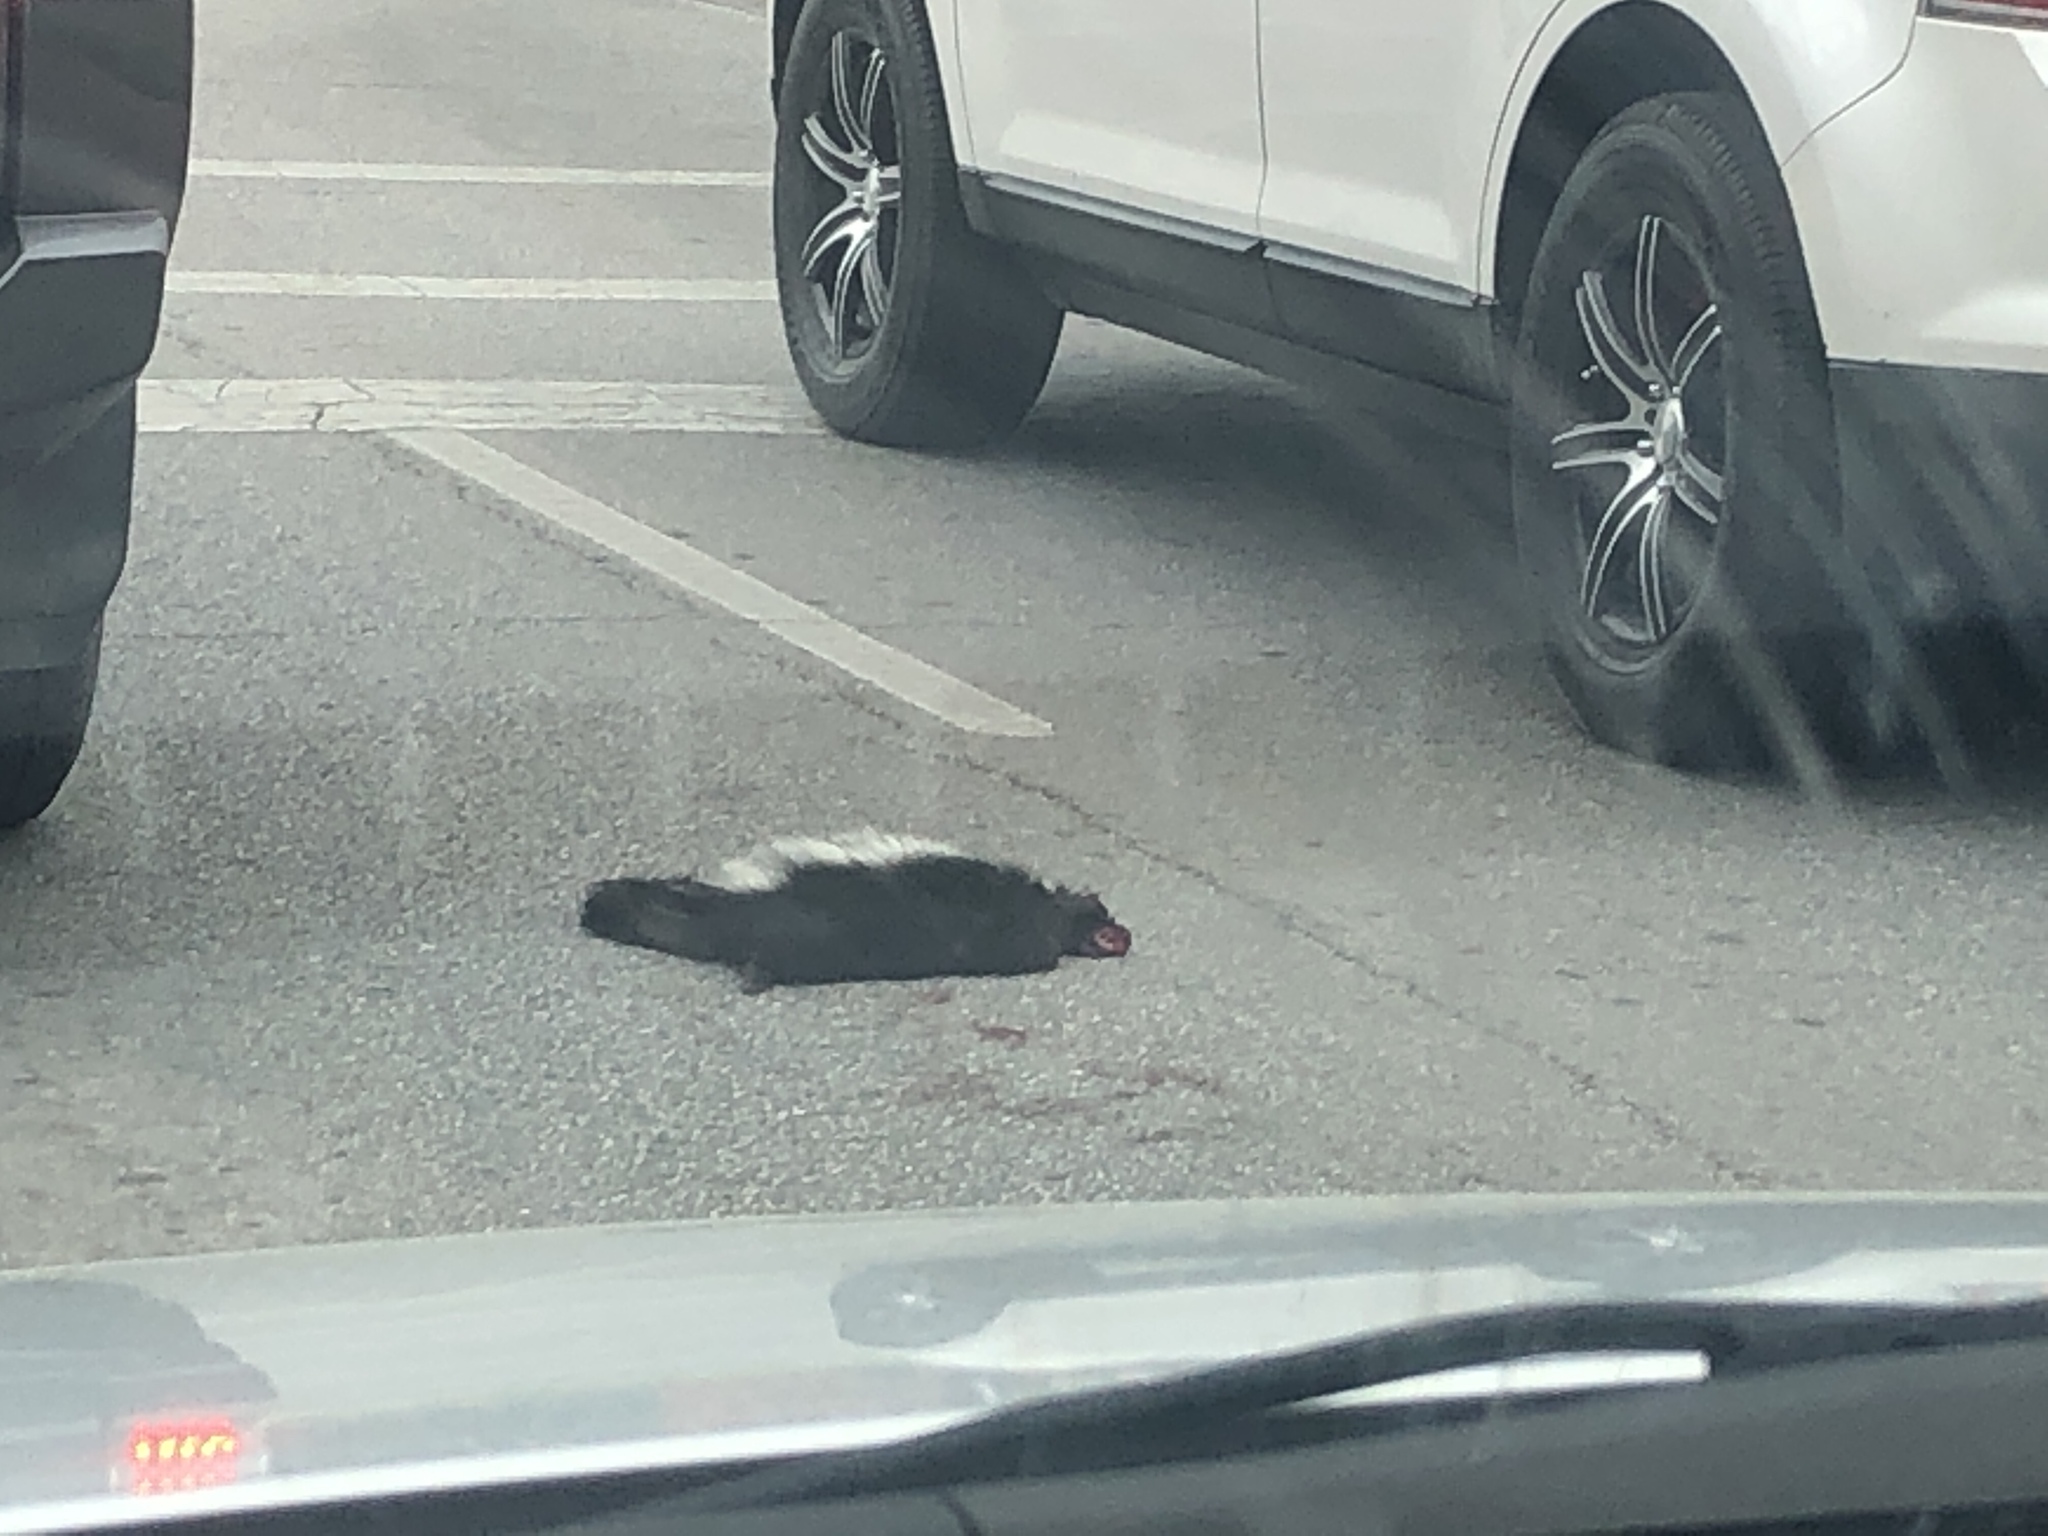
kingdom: Animalia
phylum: Chordata
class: Mammalia
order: Carnivora
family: Mephitidae
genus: Mephitis
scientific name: Mephitis mephitis
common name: Striped skunk
